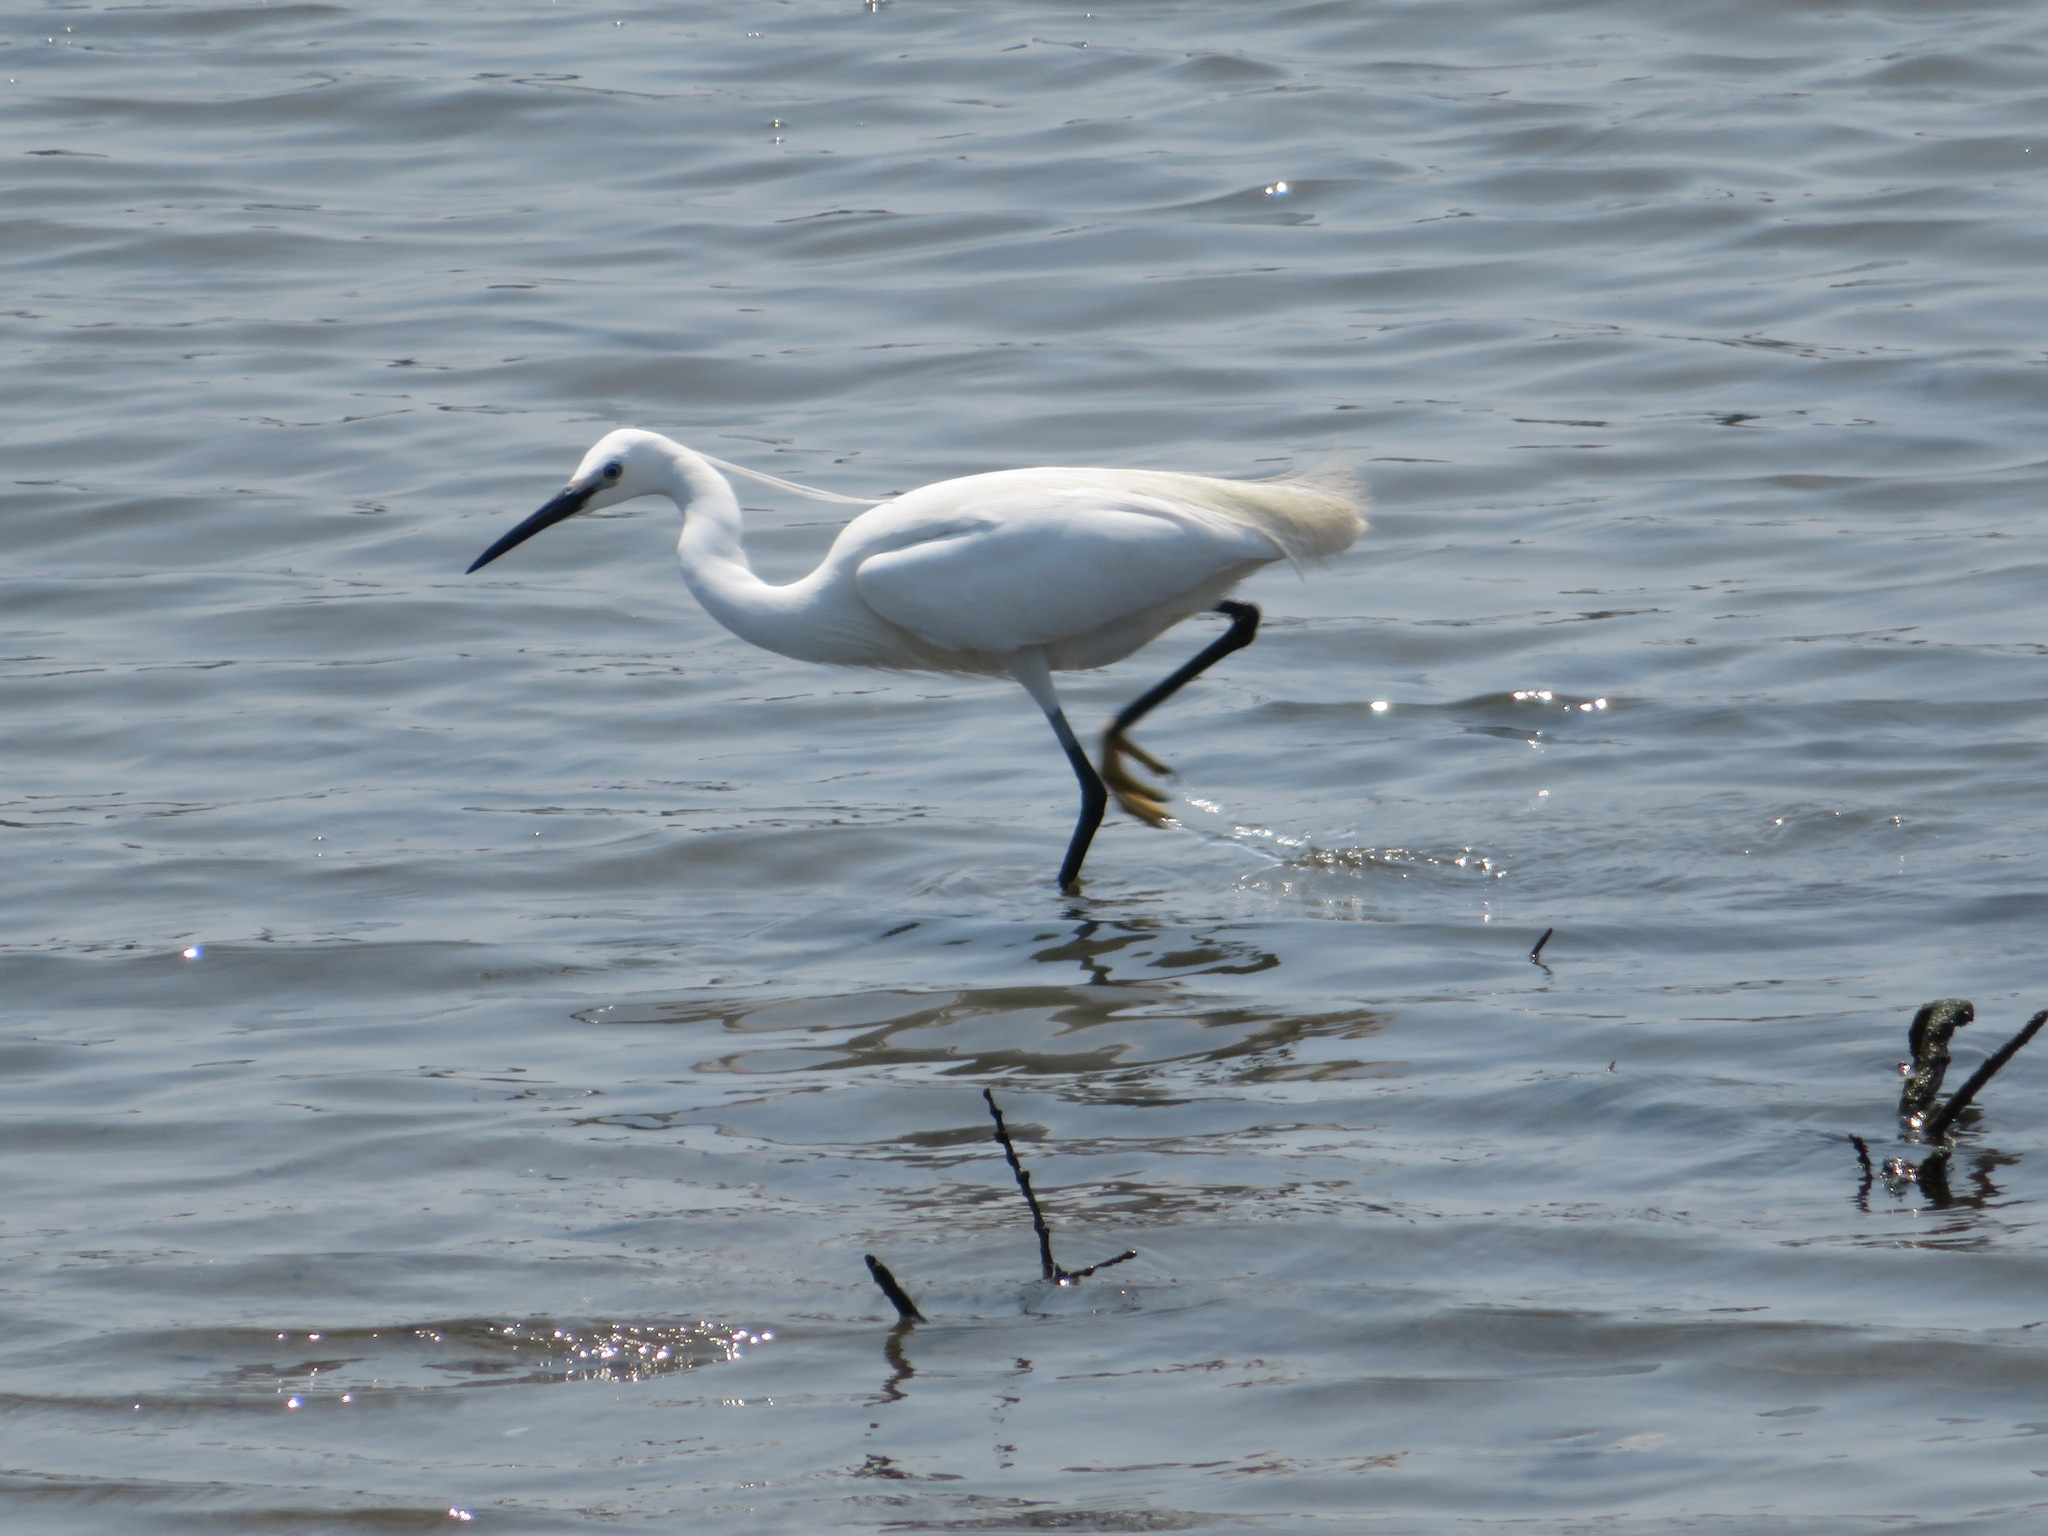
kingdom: Animalia
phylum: Chordata
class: Aves
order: Pelecaniformes
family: Ardeidae
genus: Egretta
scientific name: Egretta garzetta
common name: Little egret
